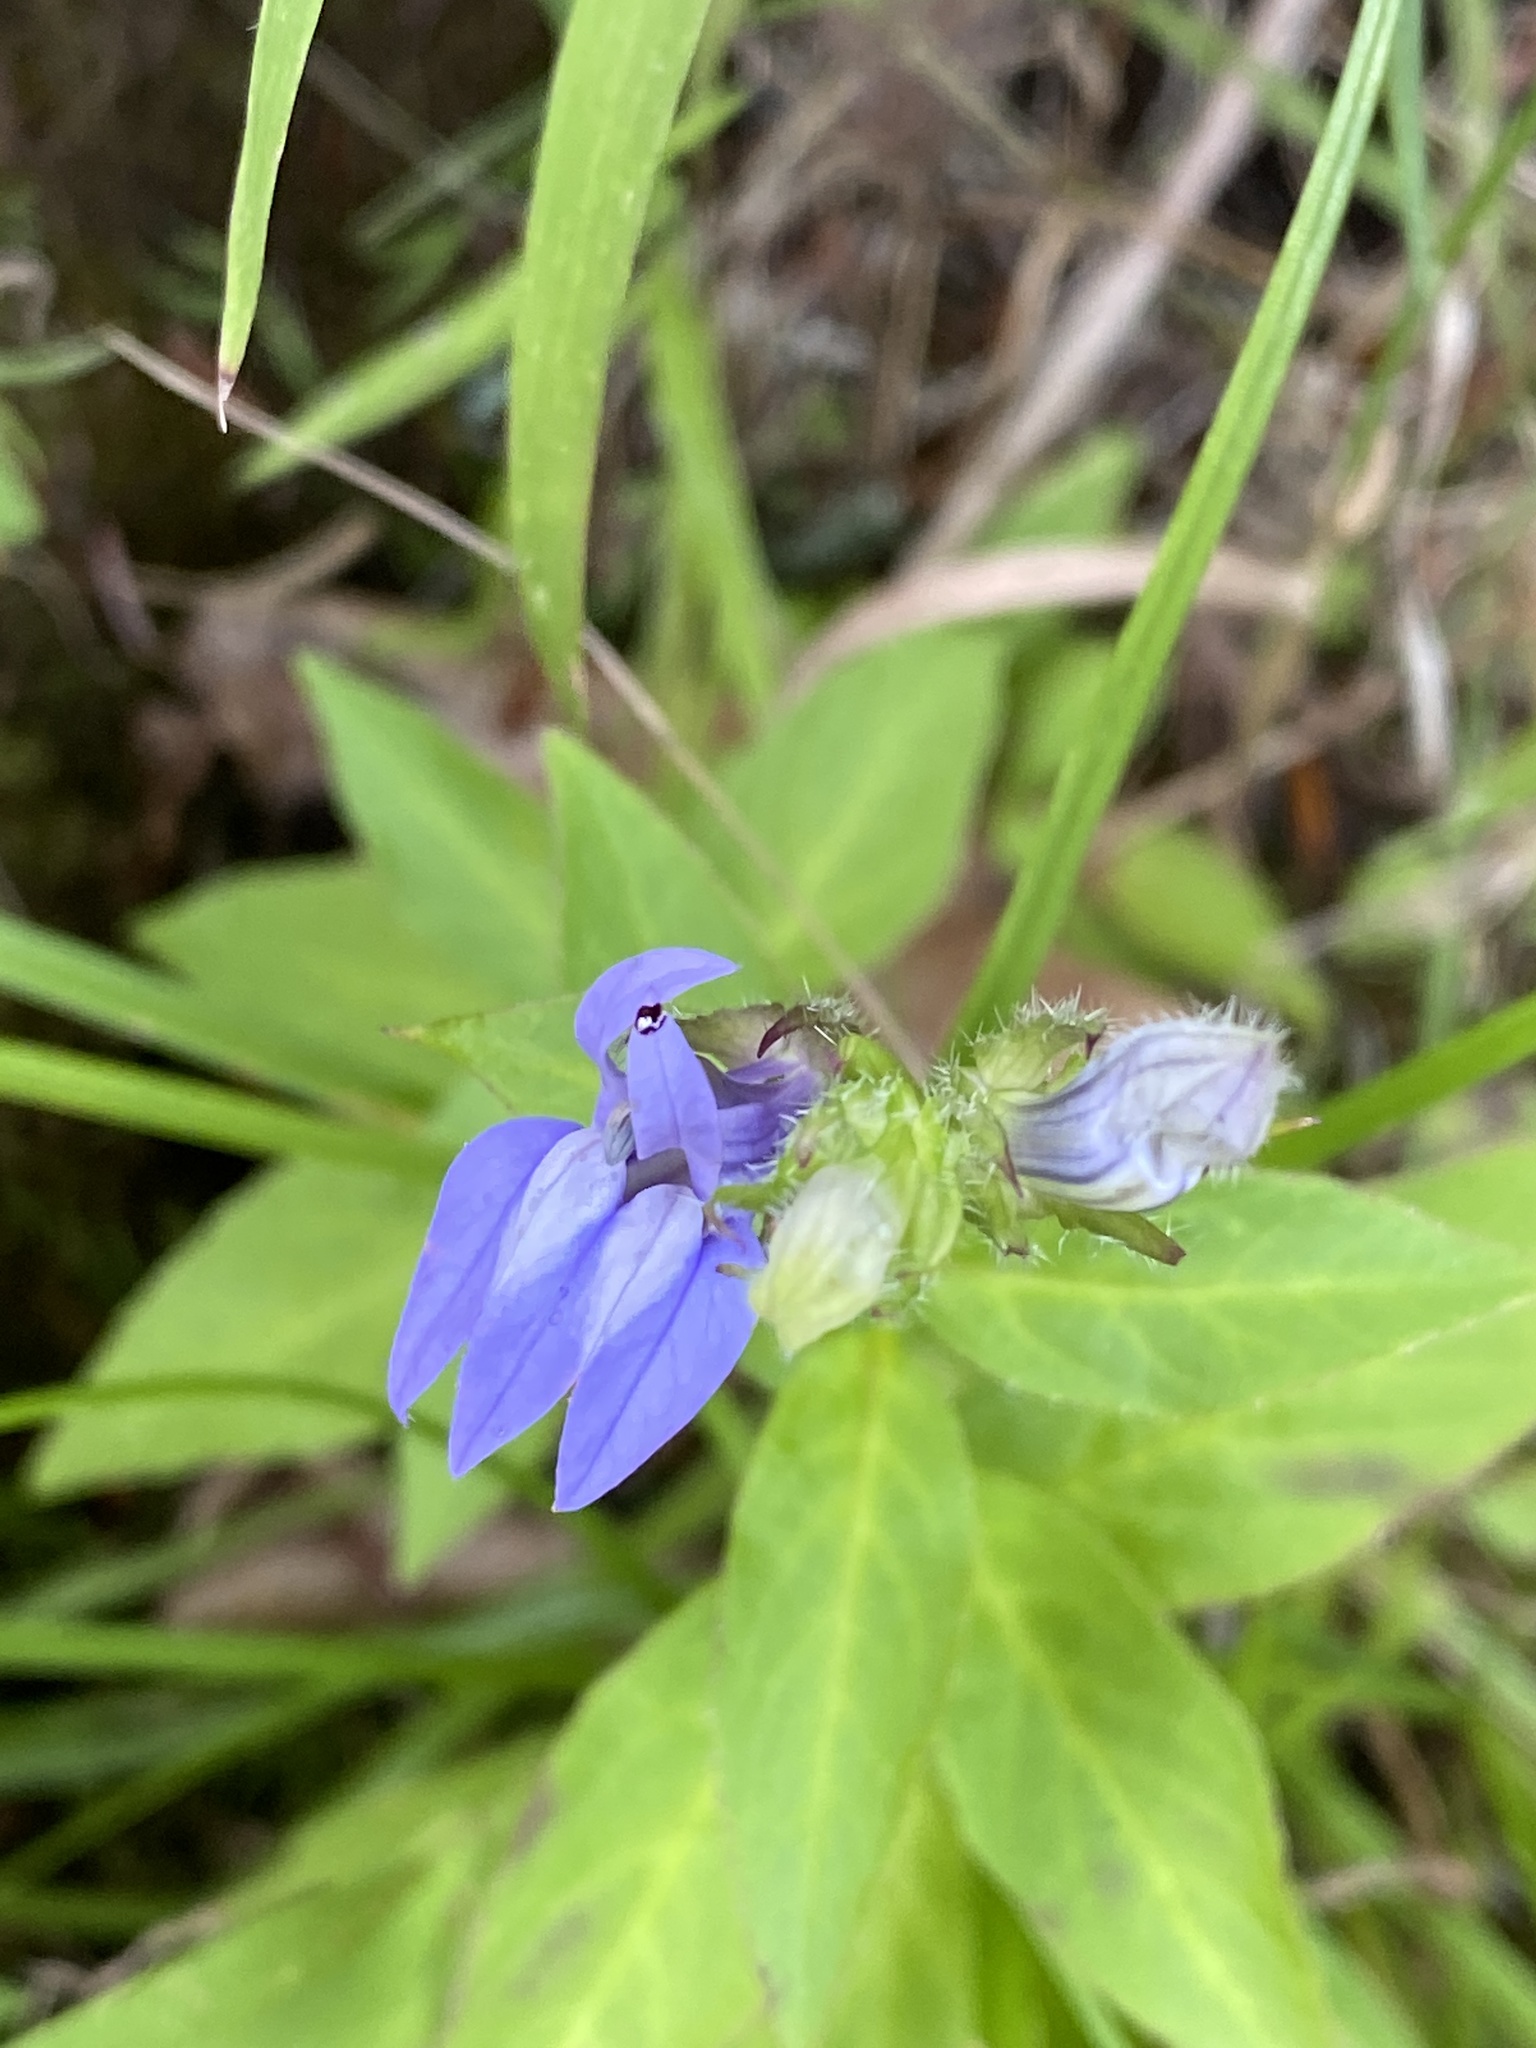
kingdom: Plantae
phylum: Tracheophyta
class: Magnoliopsida
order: Asterales
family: Campanulaceae
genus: Lobelia
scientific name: Lobelia siphilitica
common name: Great lobelia
